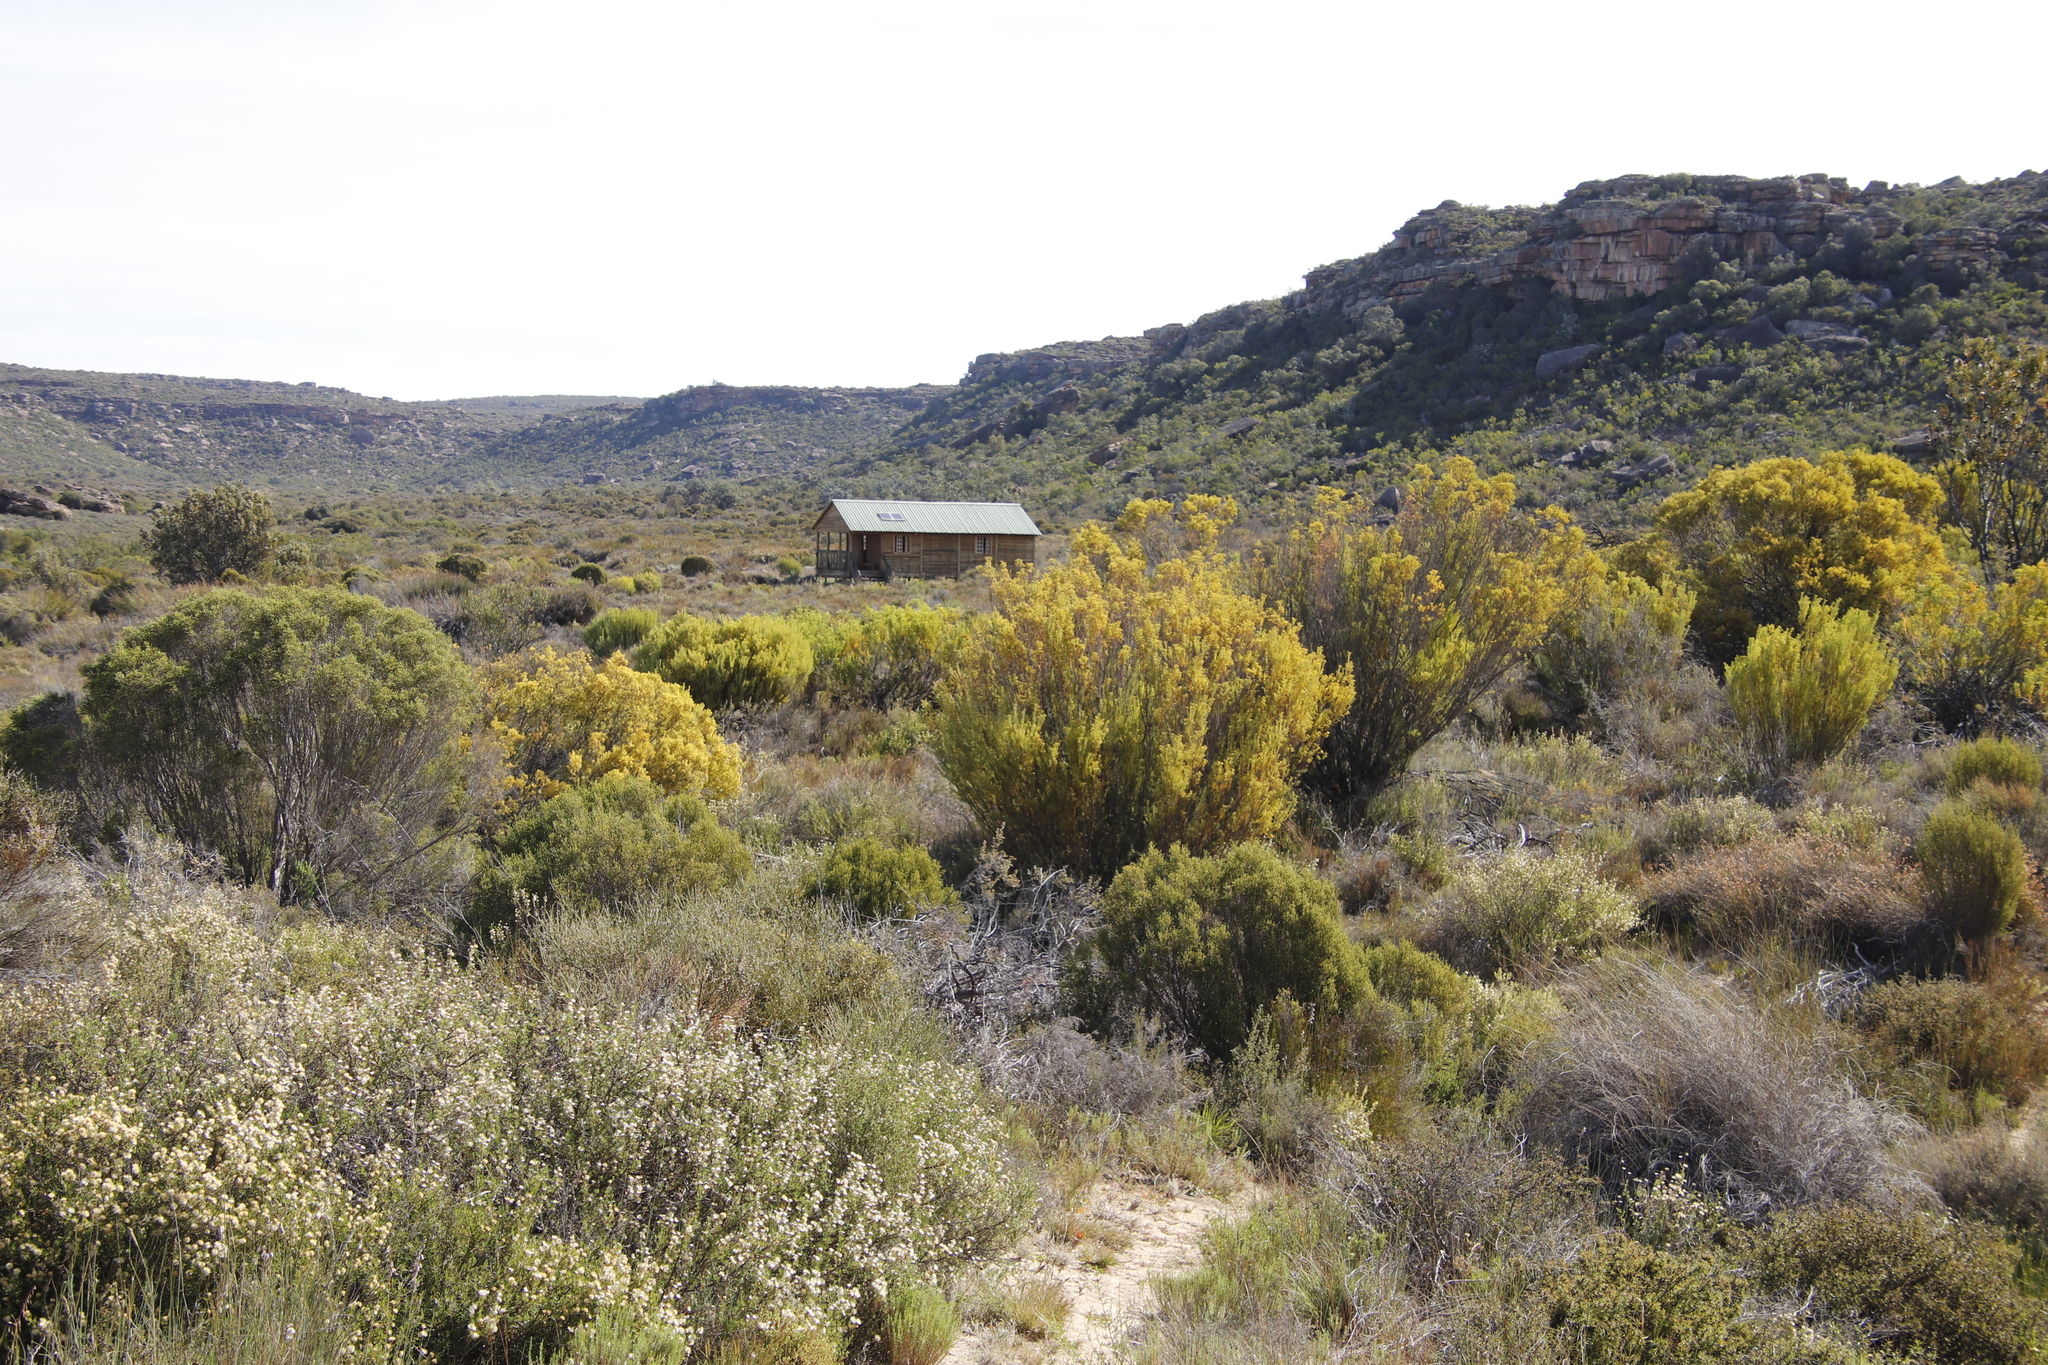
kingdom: Plantae
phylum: Tracheophyta
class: Magnoliopsida
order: Proteales
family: Proteaceae
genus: Leucadendron
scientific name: Leucadendron pubescens
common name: Grey conebush
